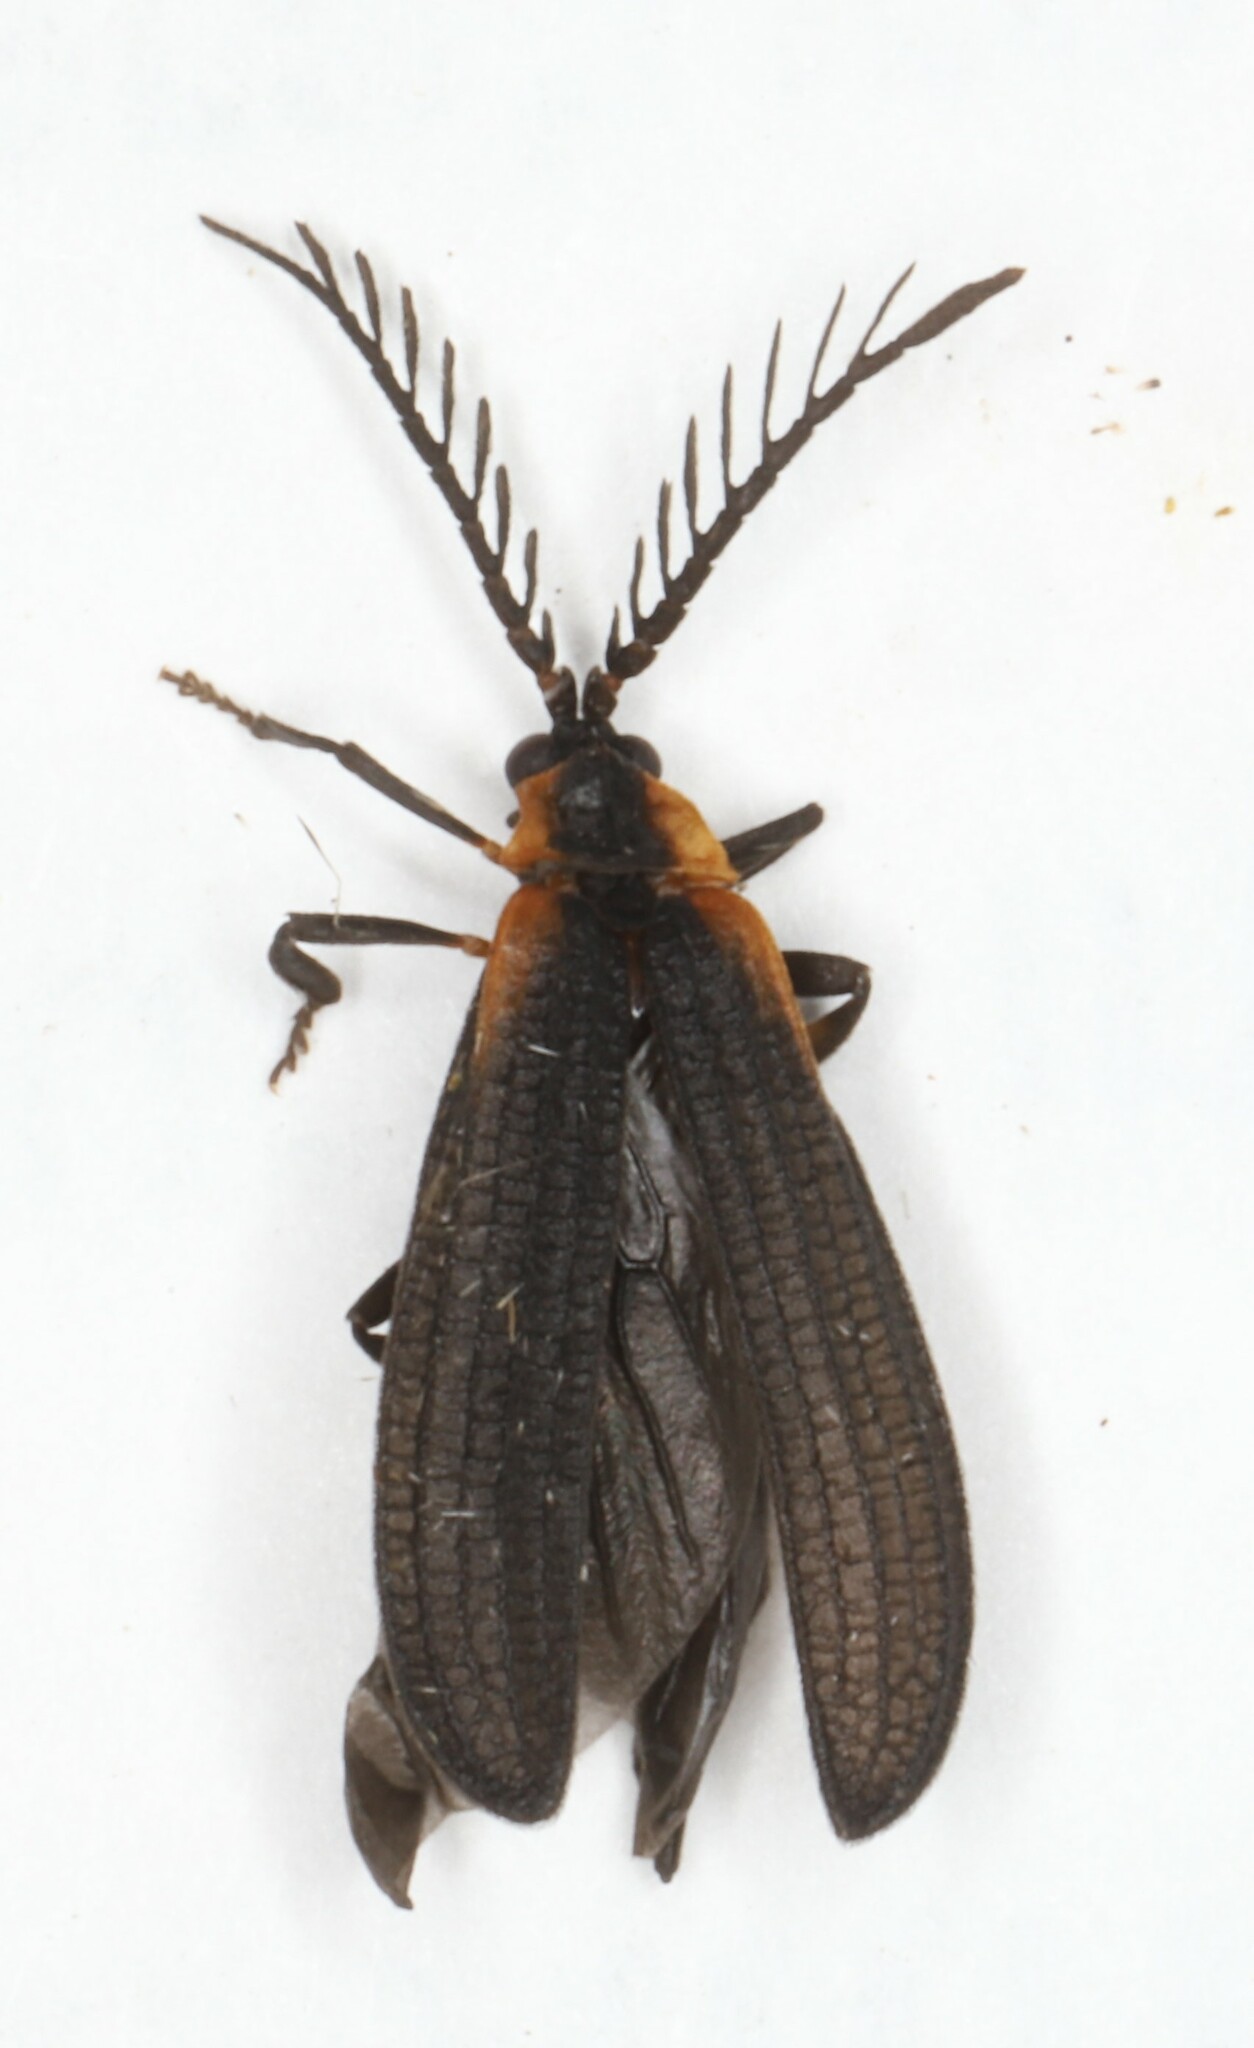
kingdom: Animalia
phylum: Arthropoda
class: Insecta
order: Coleoptera
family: Lycidae
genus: Leptoceletes
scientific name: Leptoceletes basalis
